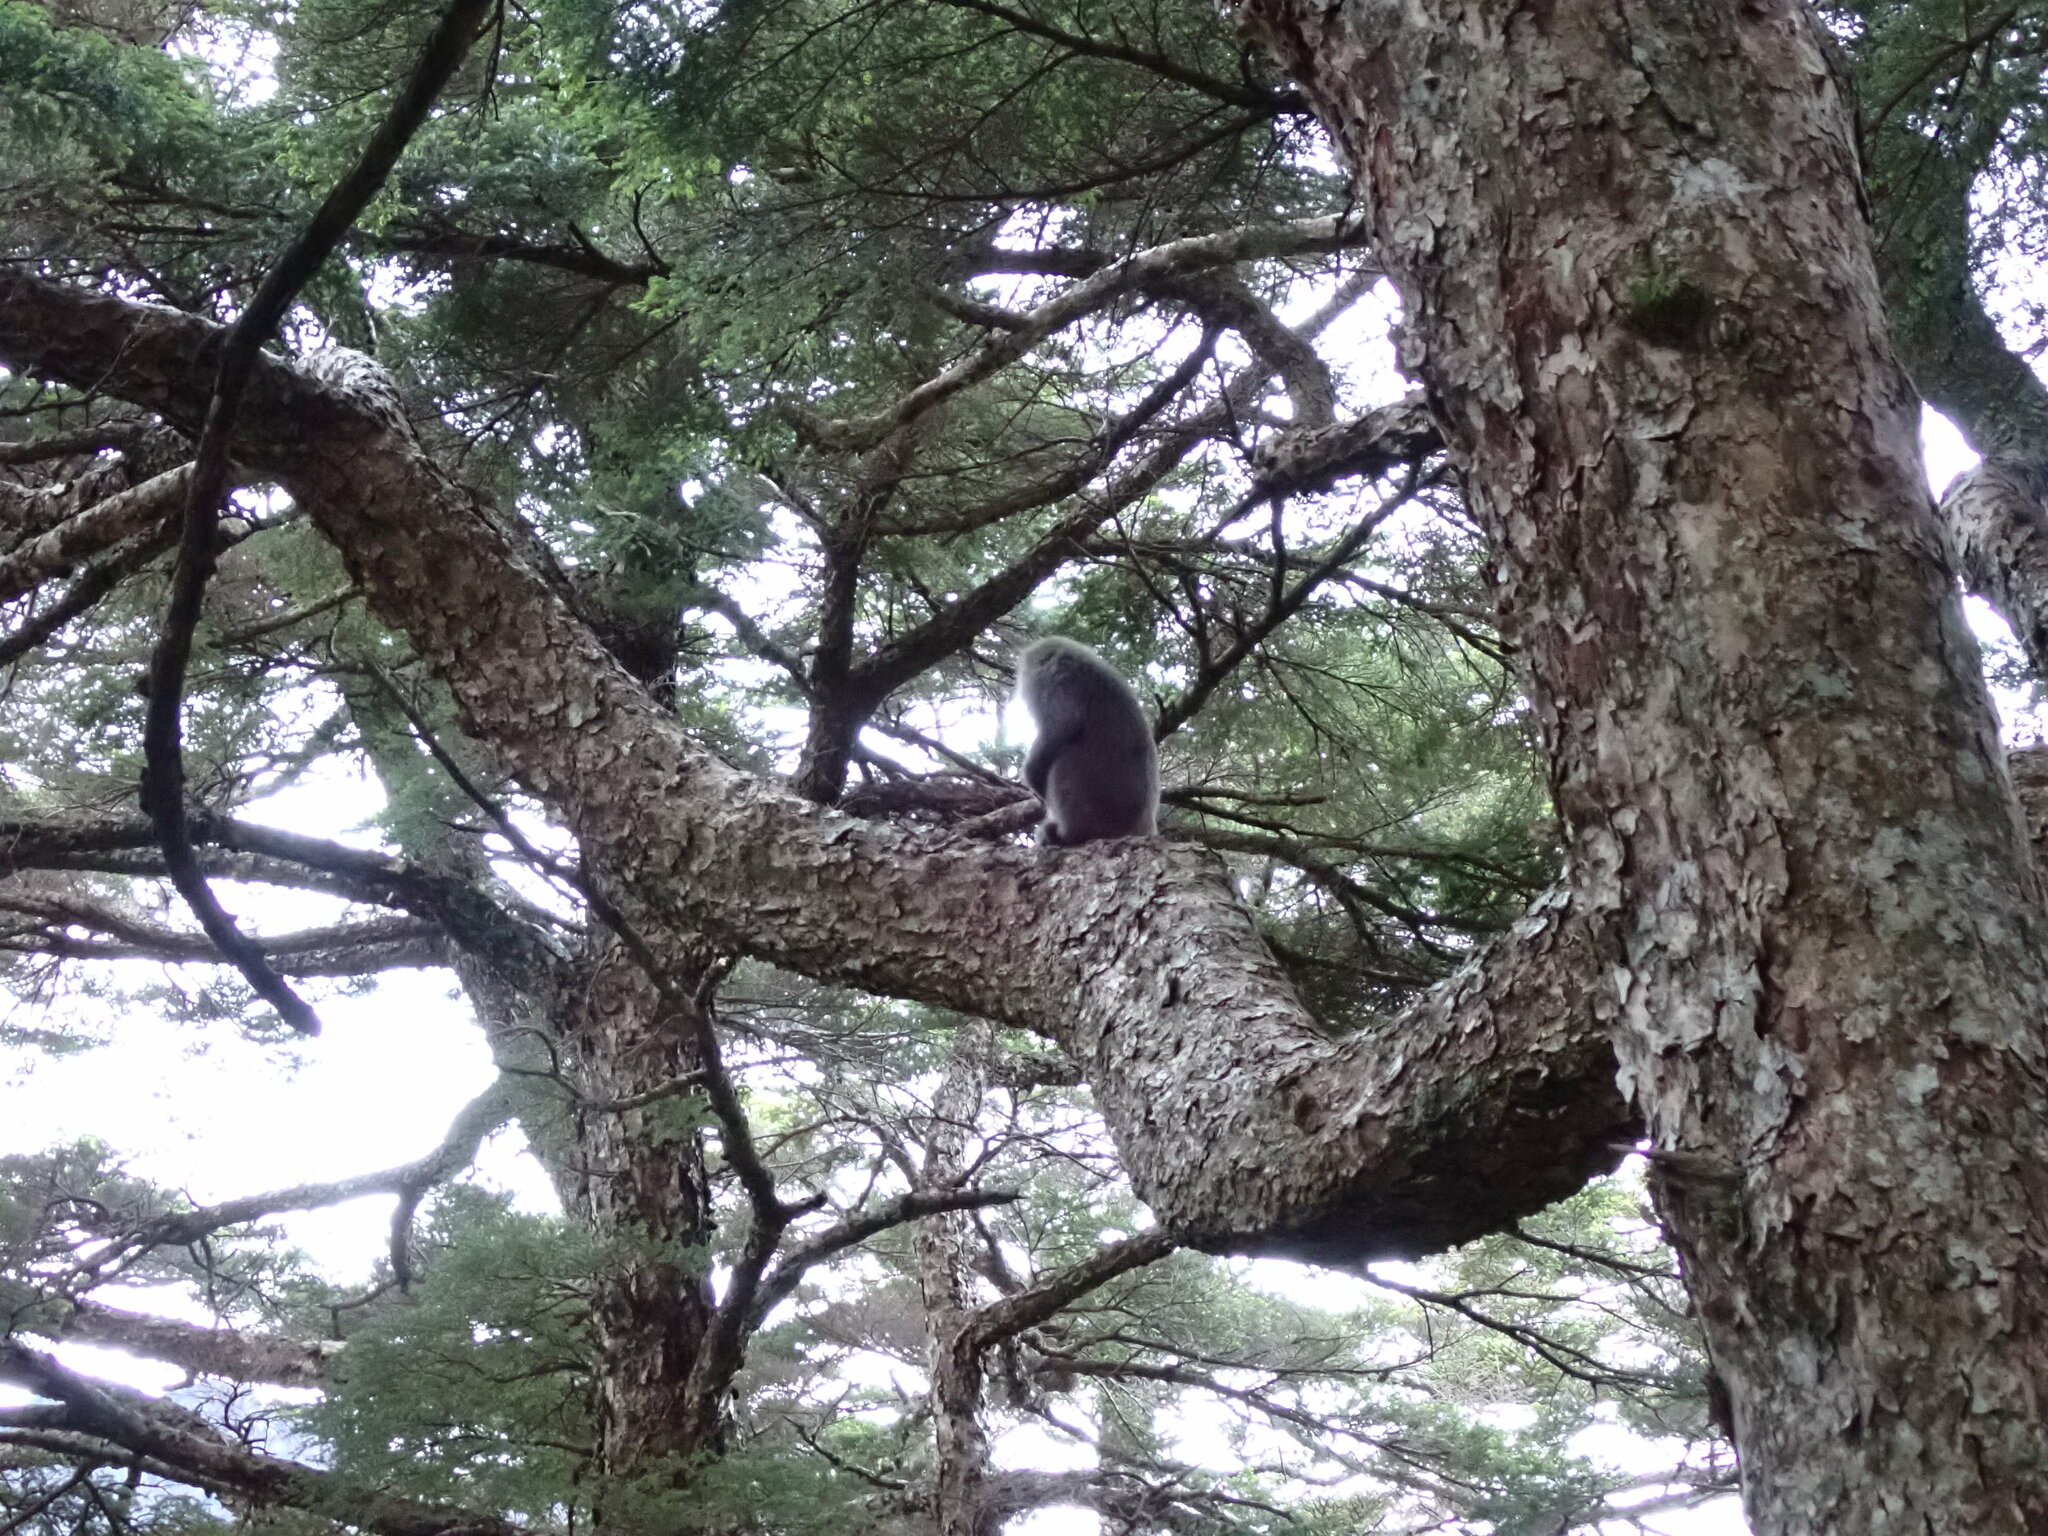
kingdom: Animalia
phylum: Chordata
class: Mammalia
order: Primates
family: Cercopithecidae
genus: Macaca
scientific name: Macaca cyclopis
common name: Formosan rock macaque
